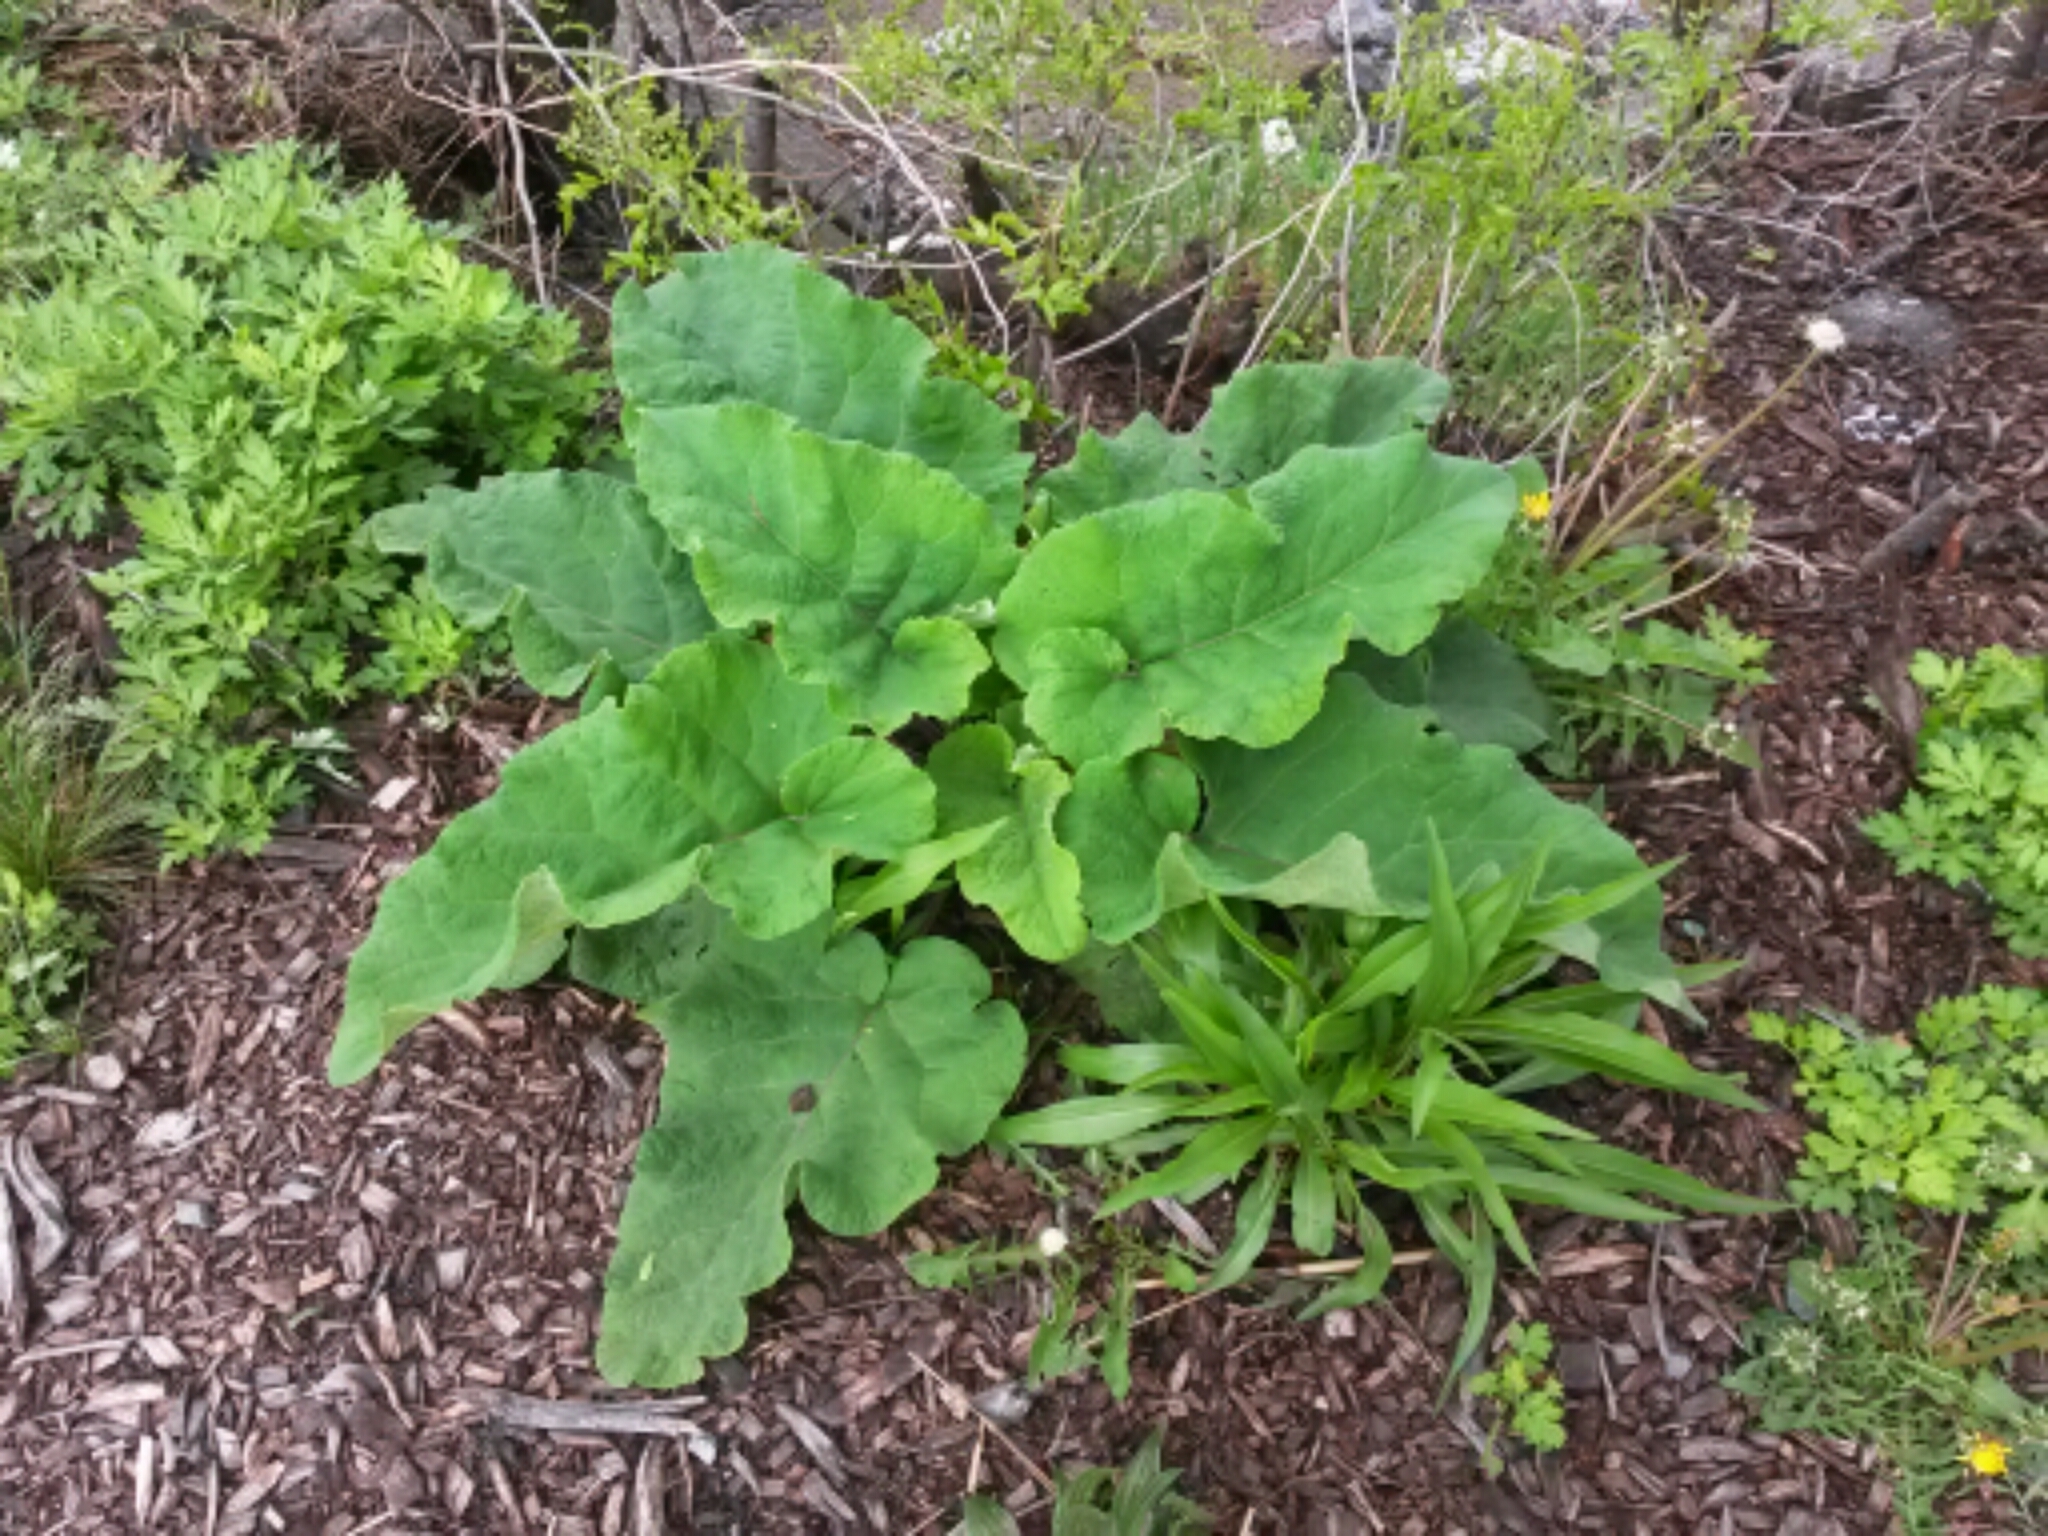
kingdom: Plantae
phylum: Tracheophyta
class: Magnoliopsida
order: Asterales
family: Asteraceae
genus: Arctium
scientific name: Arctium
